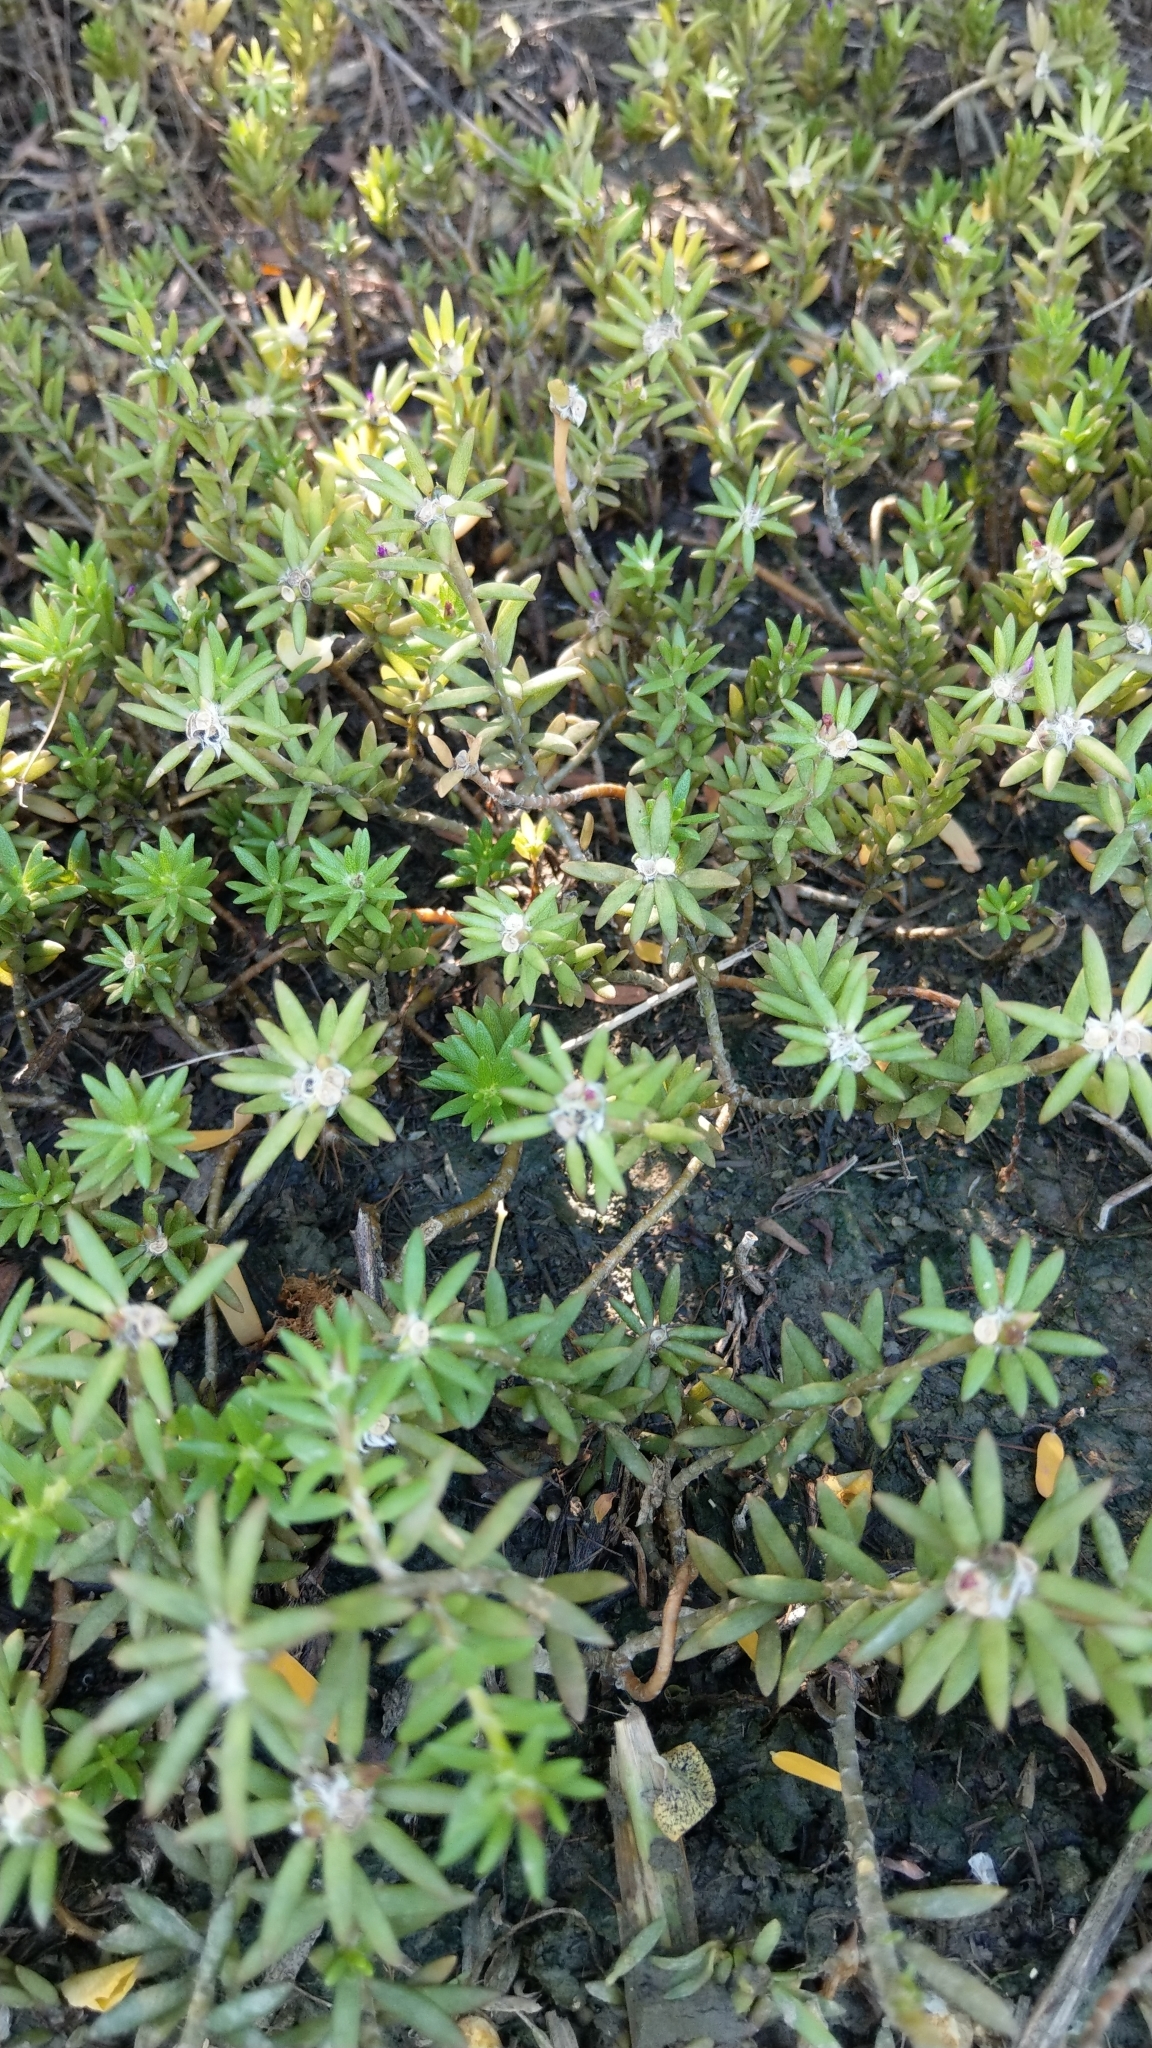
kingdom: Plantae
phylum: Tracheophyta
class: Magnoliopsida
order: Caryophyllales
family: Portulacaceae
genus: Portulaca
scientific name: Portulaca pilosa
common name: Kiss me quick
